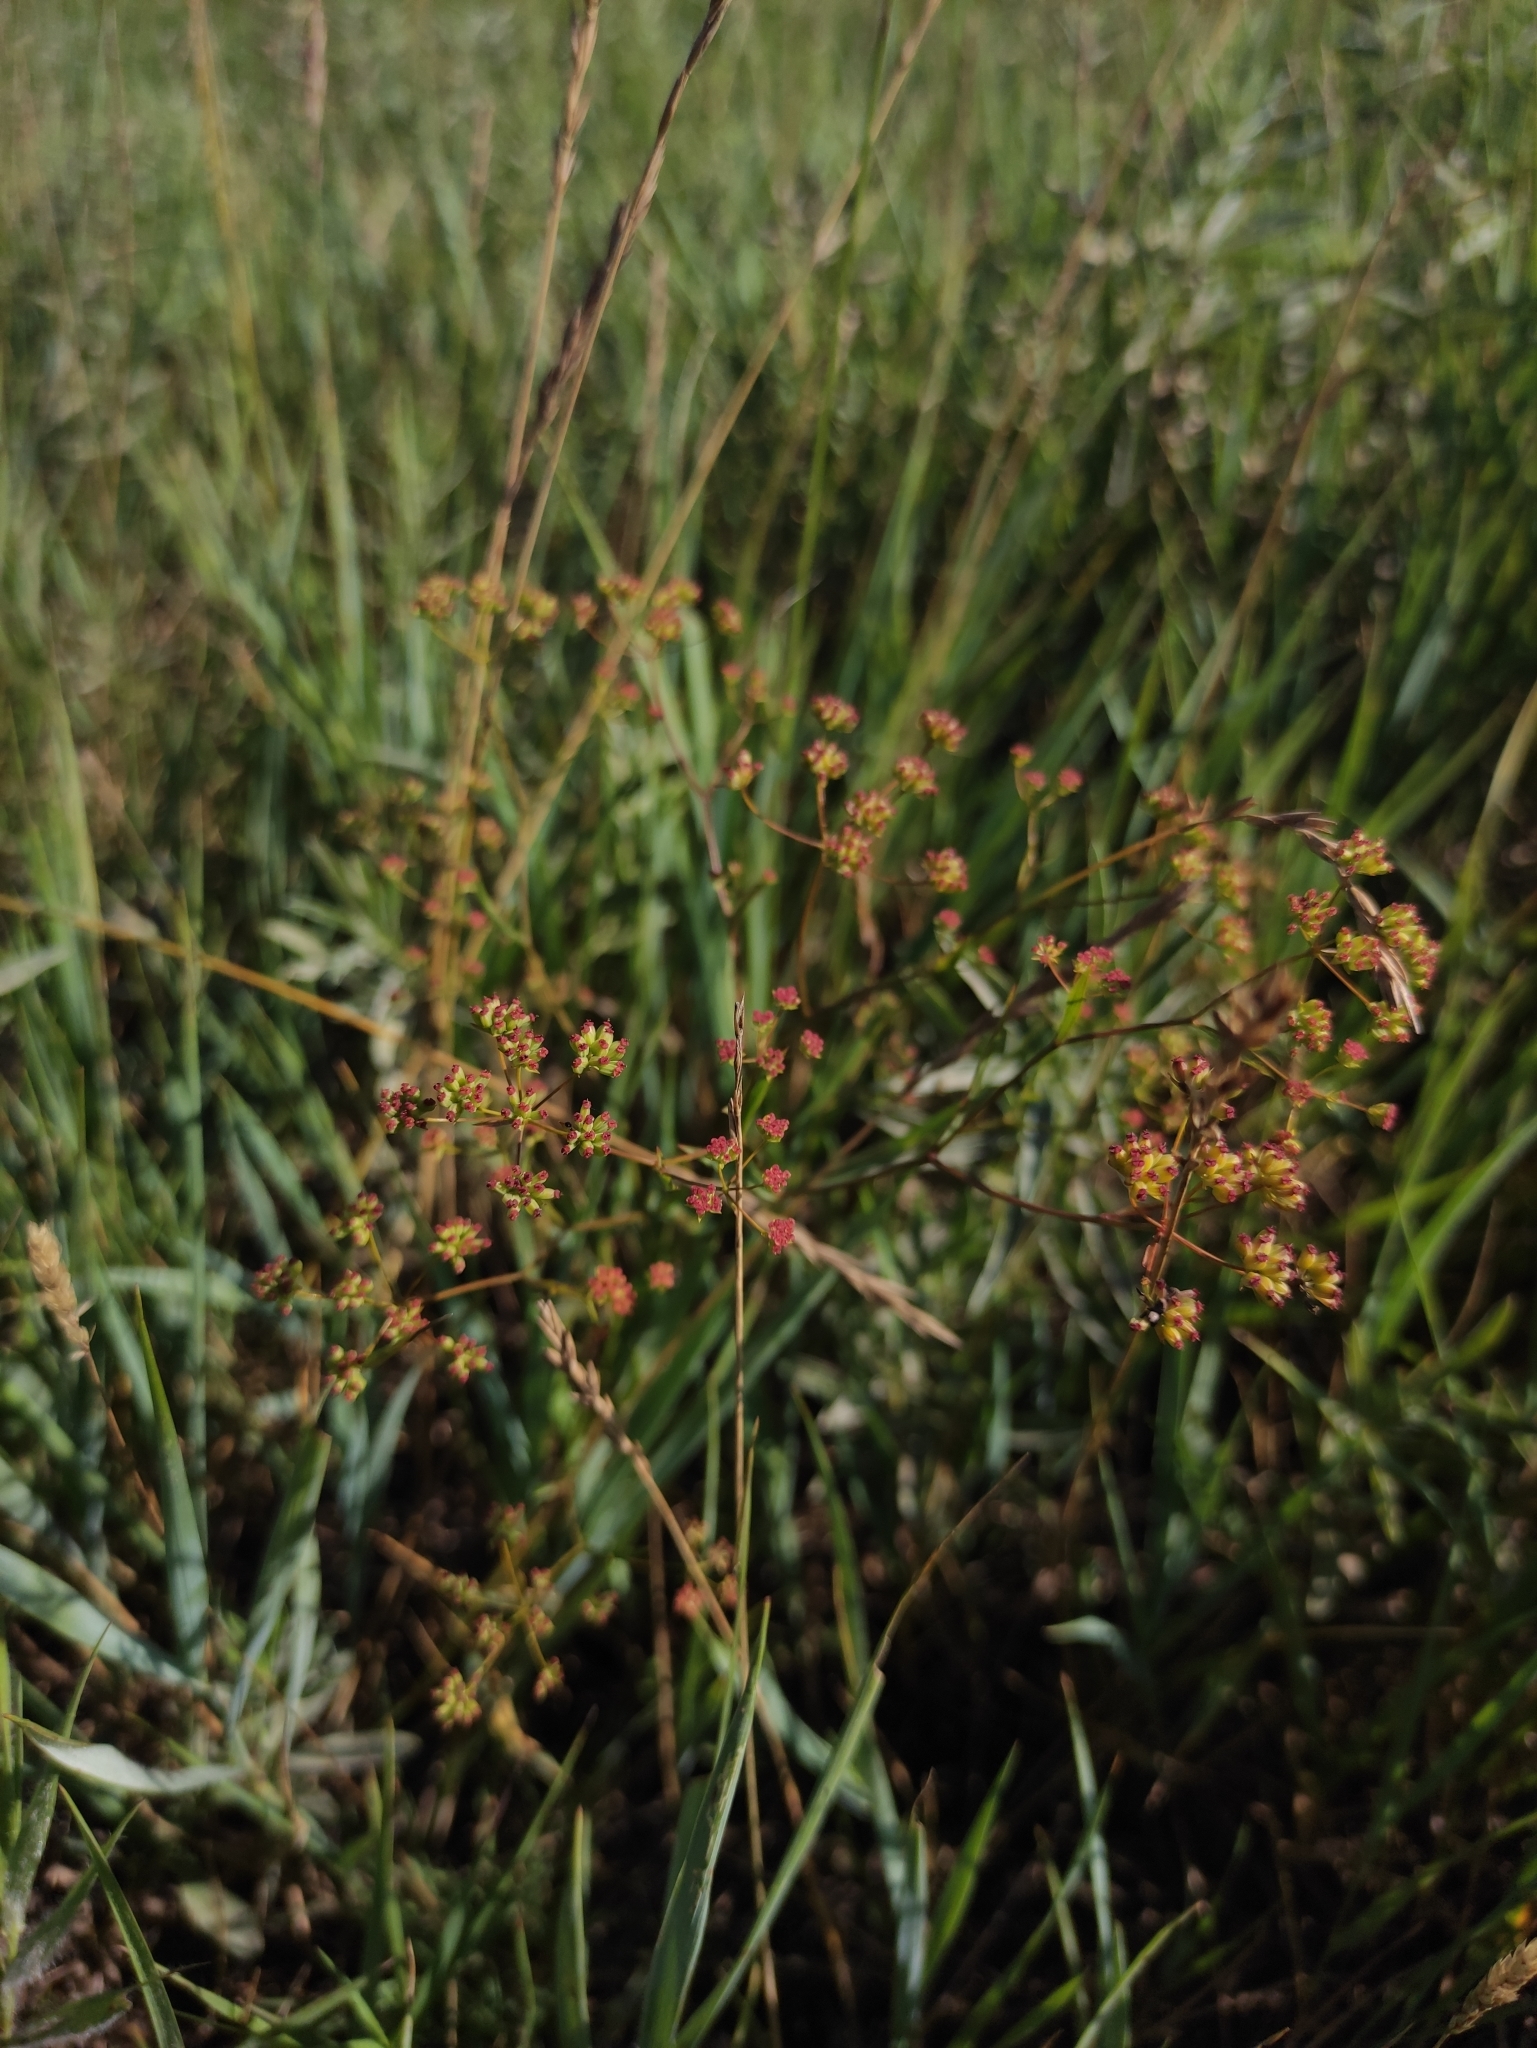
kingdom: Plantae
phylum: Tracheophyta
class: Magnoliopsida
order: Apiales
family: Apiaceae
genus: Bupleurum
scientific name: Bupleurum scorzonerifolium
